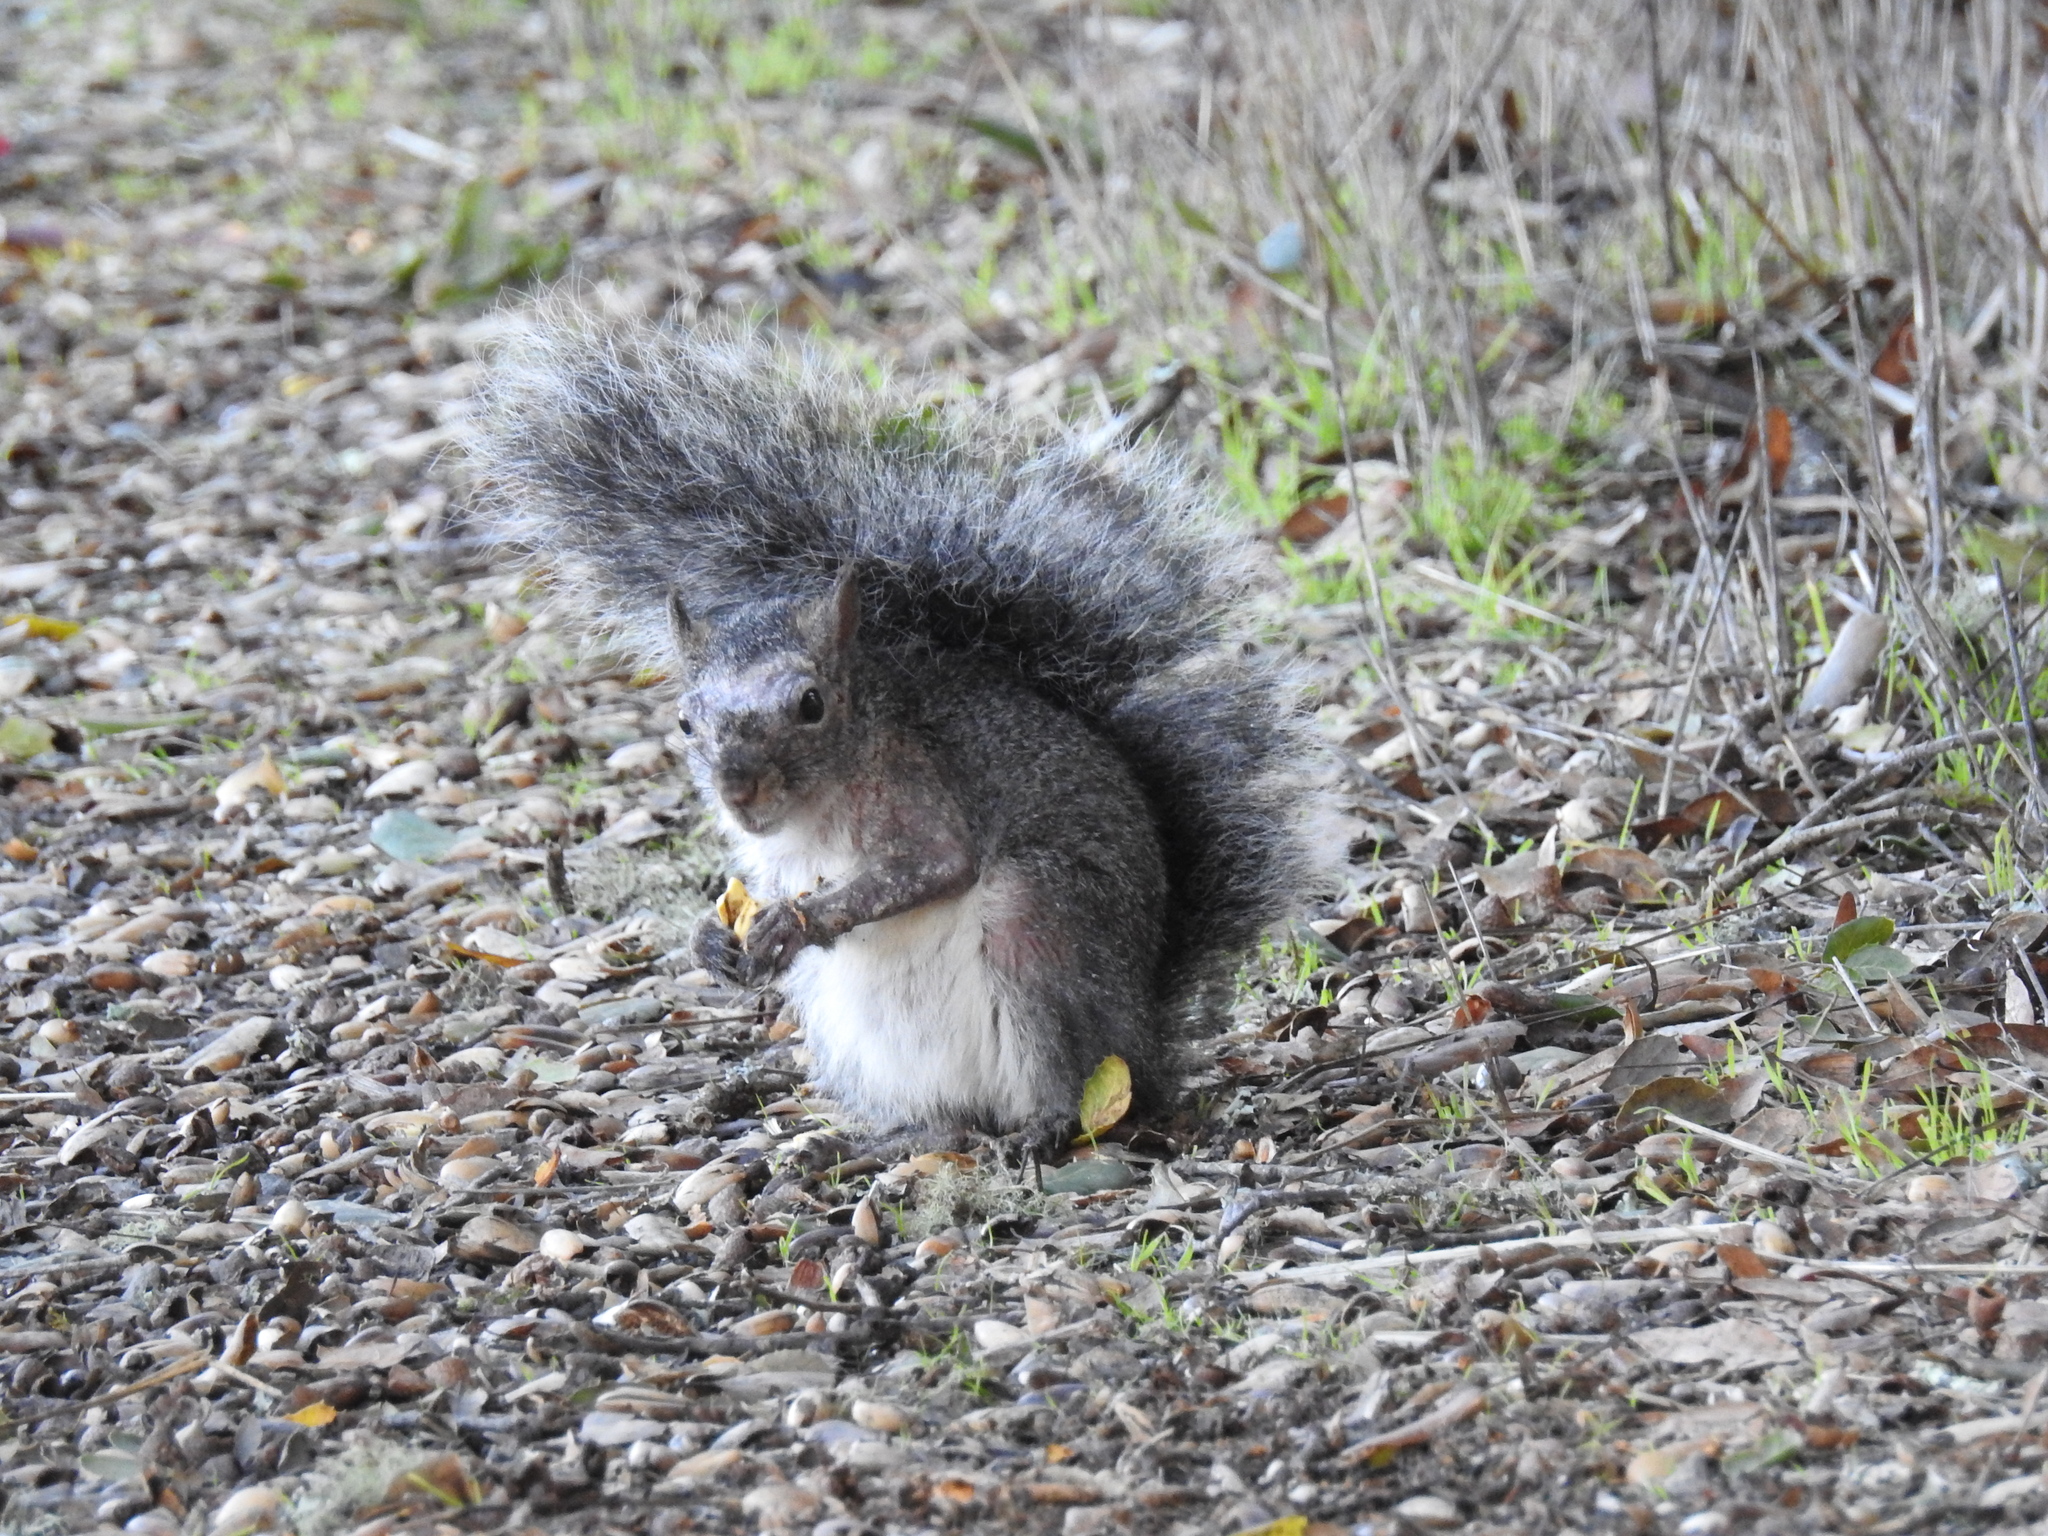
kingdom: Animalia
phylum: Chordata
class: Mammalia
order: Rodentia
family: Sciuridae
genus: Sciurus
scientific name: Sciurus griseus
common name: Western gray squirrel
